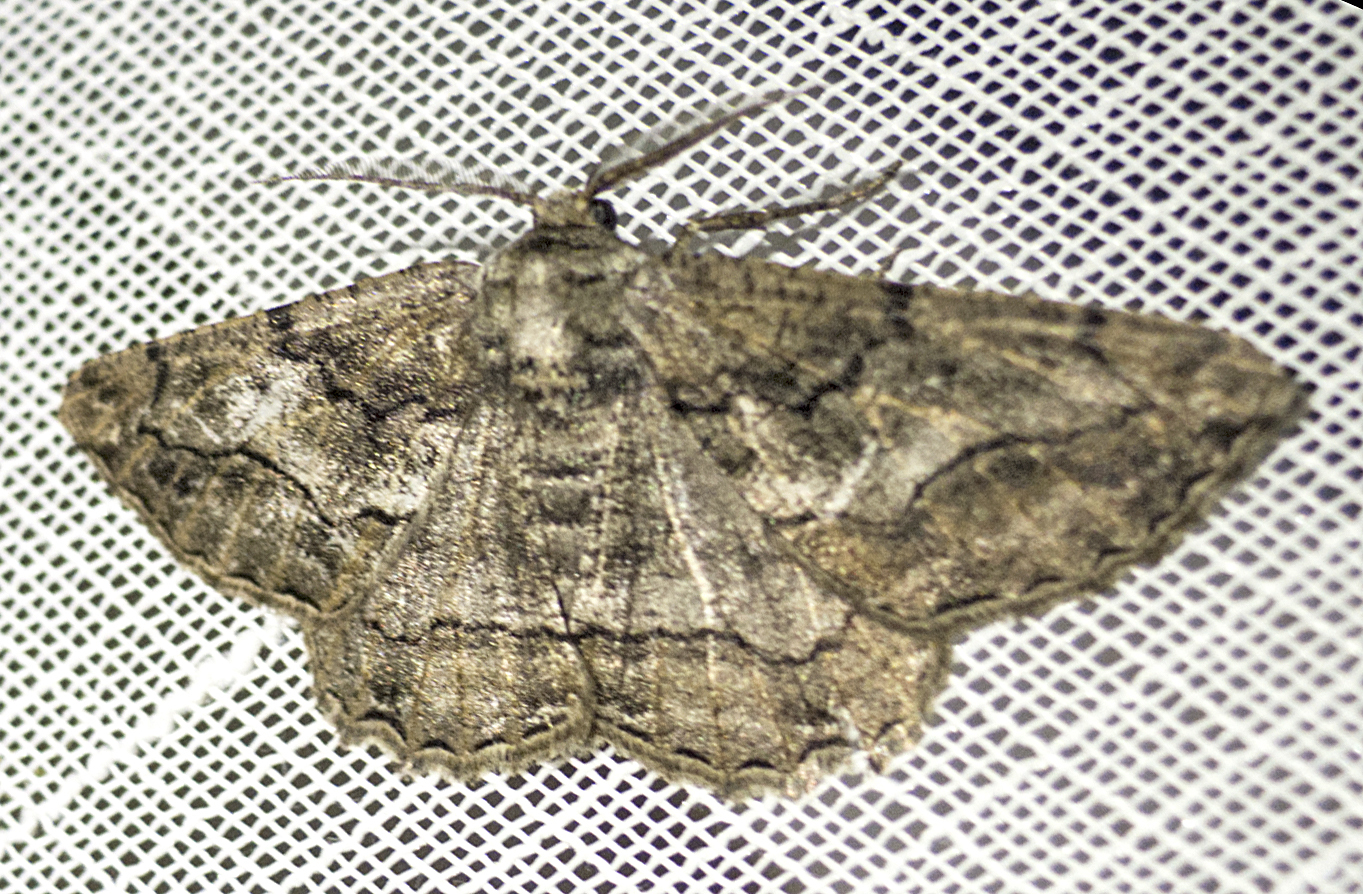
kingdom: Animalia
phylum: Arthropoda
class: Insecta
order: Lepidoptera
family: Geometridae
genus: Synopsia
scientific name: Synopsia sociaria
